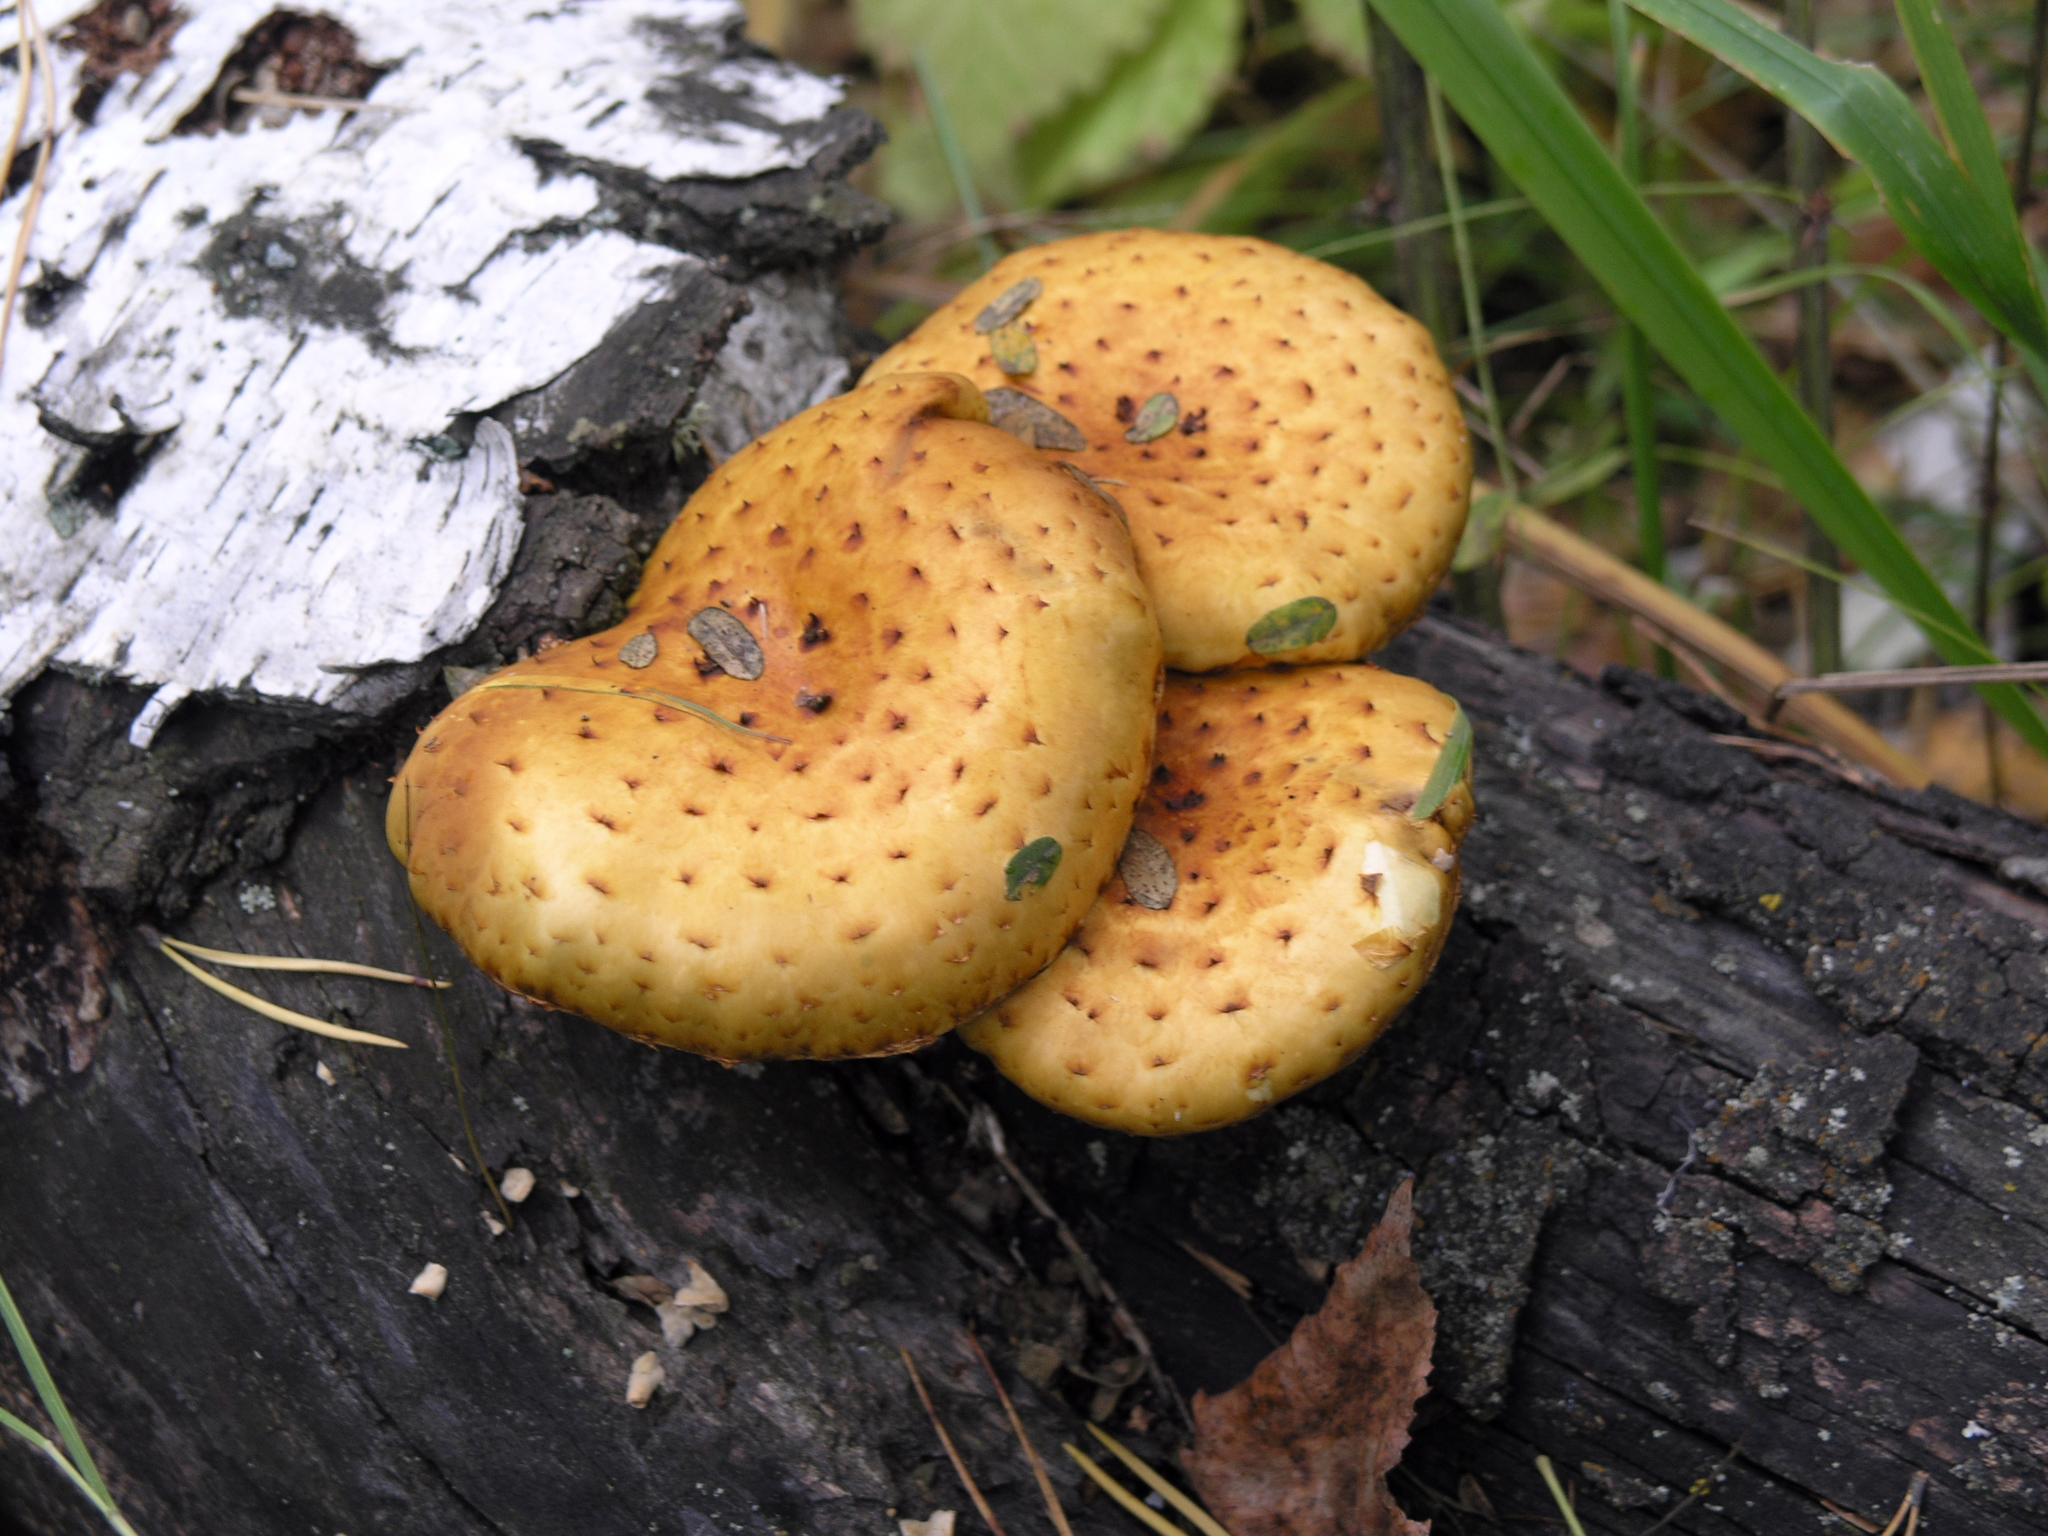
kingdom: Fungi
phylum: Basidiomycota
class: Agaricomycetes
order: Agaricales
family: Strophariaceae
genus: Pholiota
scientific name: Pholiota aurivella
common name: Golden scalycap
